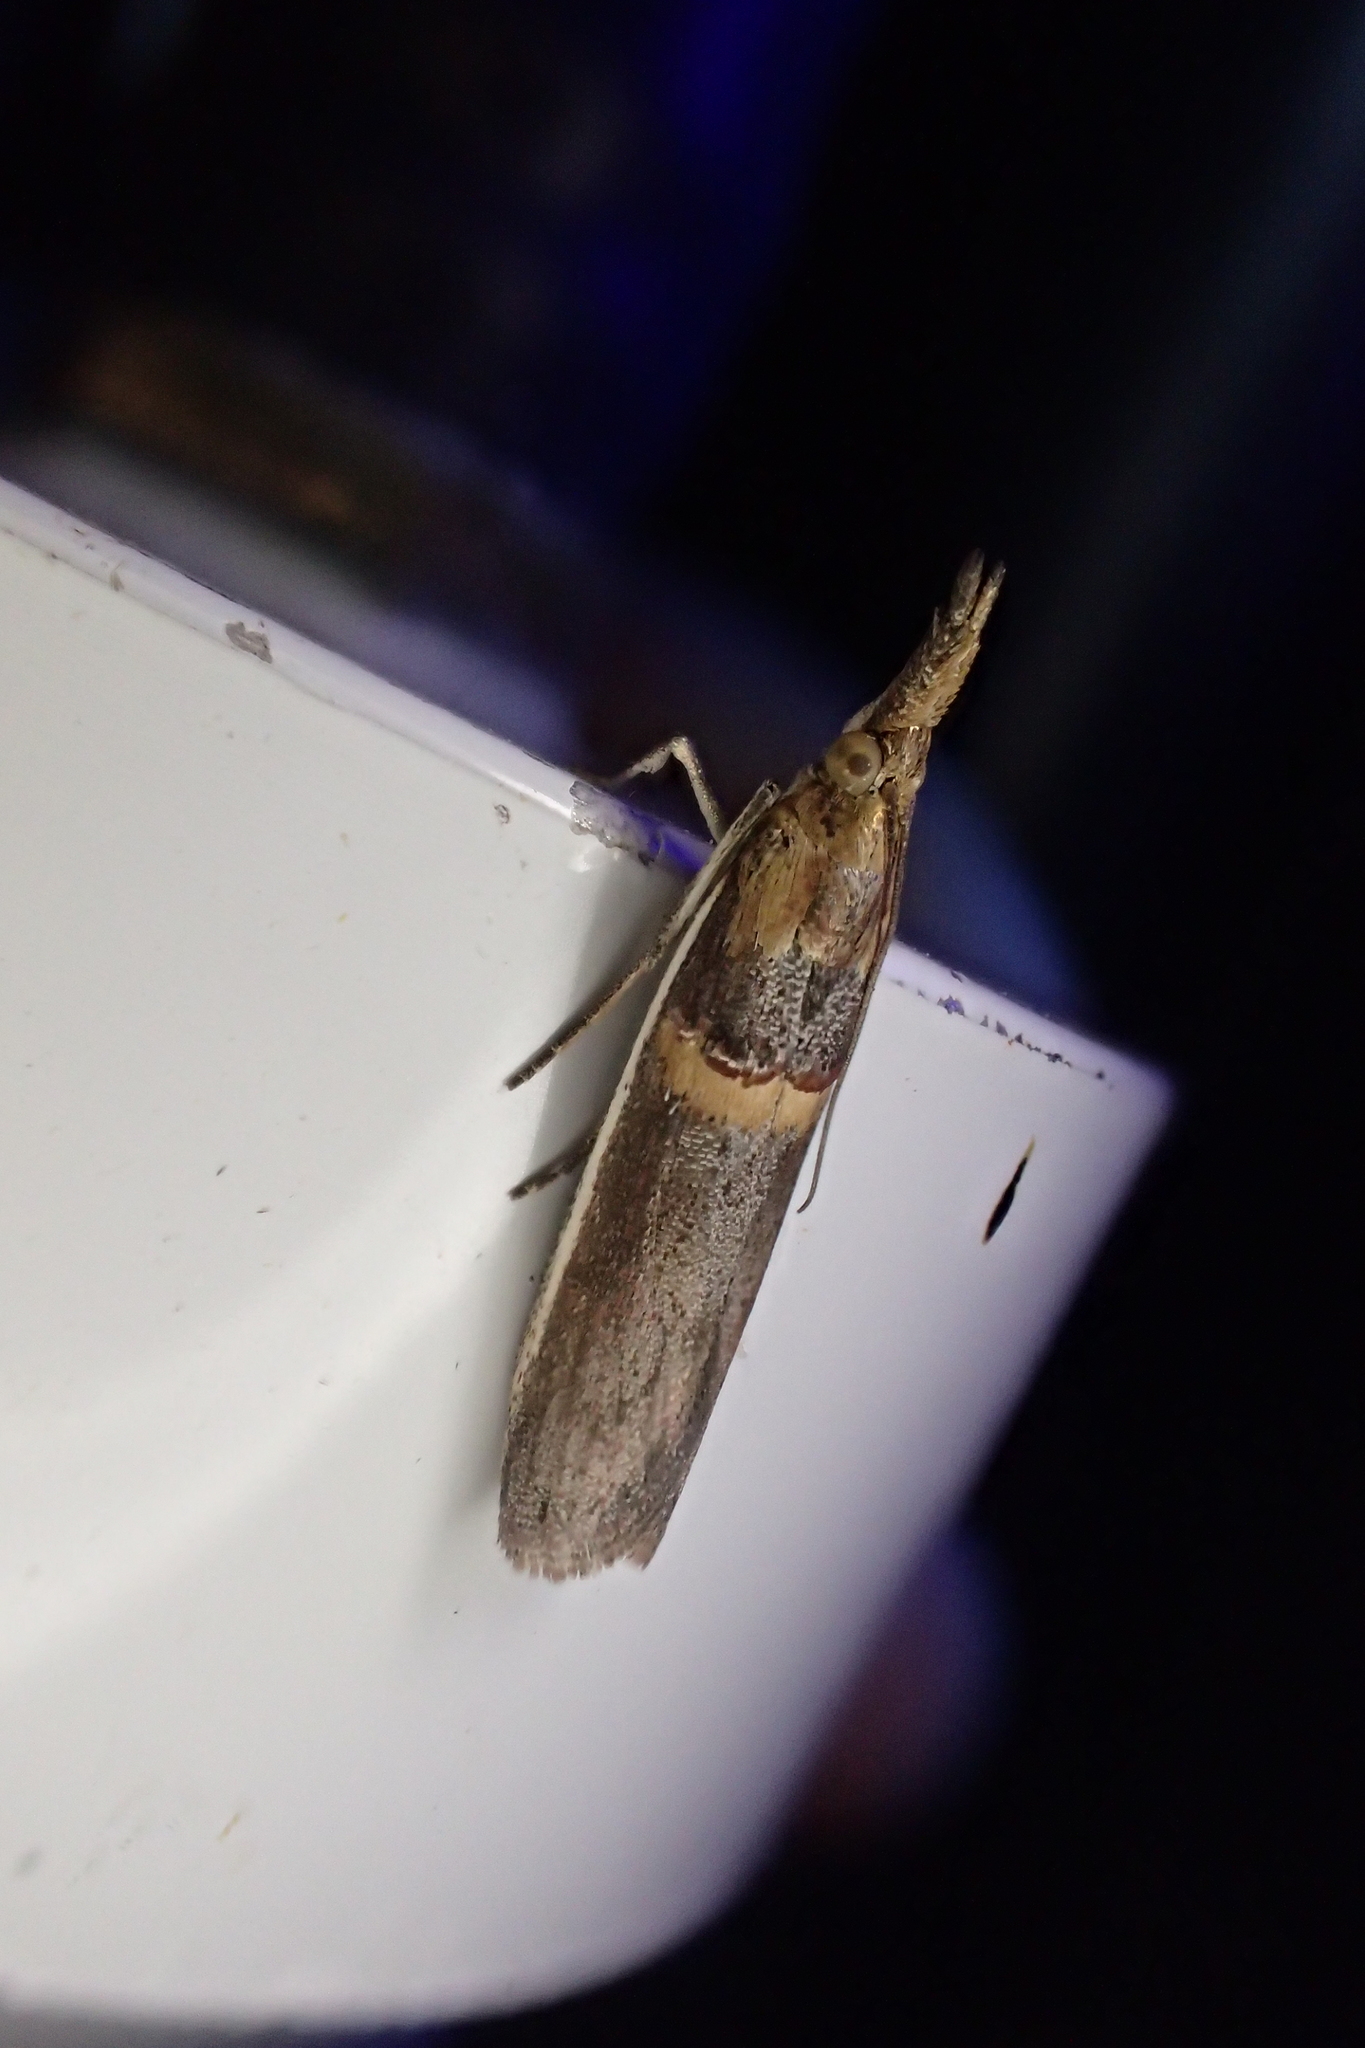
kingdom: Animalia
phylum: Arthropoda
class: Insecta
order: Lepidoptera
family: Pyralidae
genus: Etiella
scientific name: Etiella zinckenella
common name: Gold-banded etiella moth
